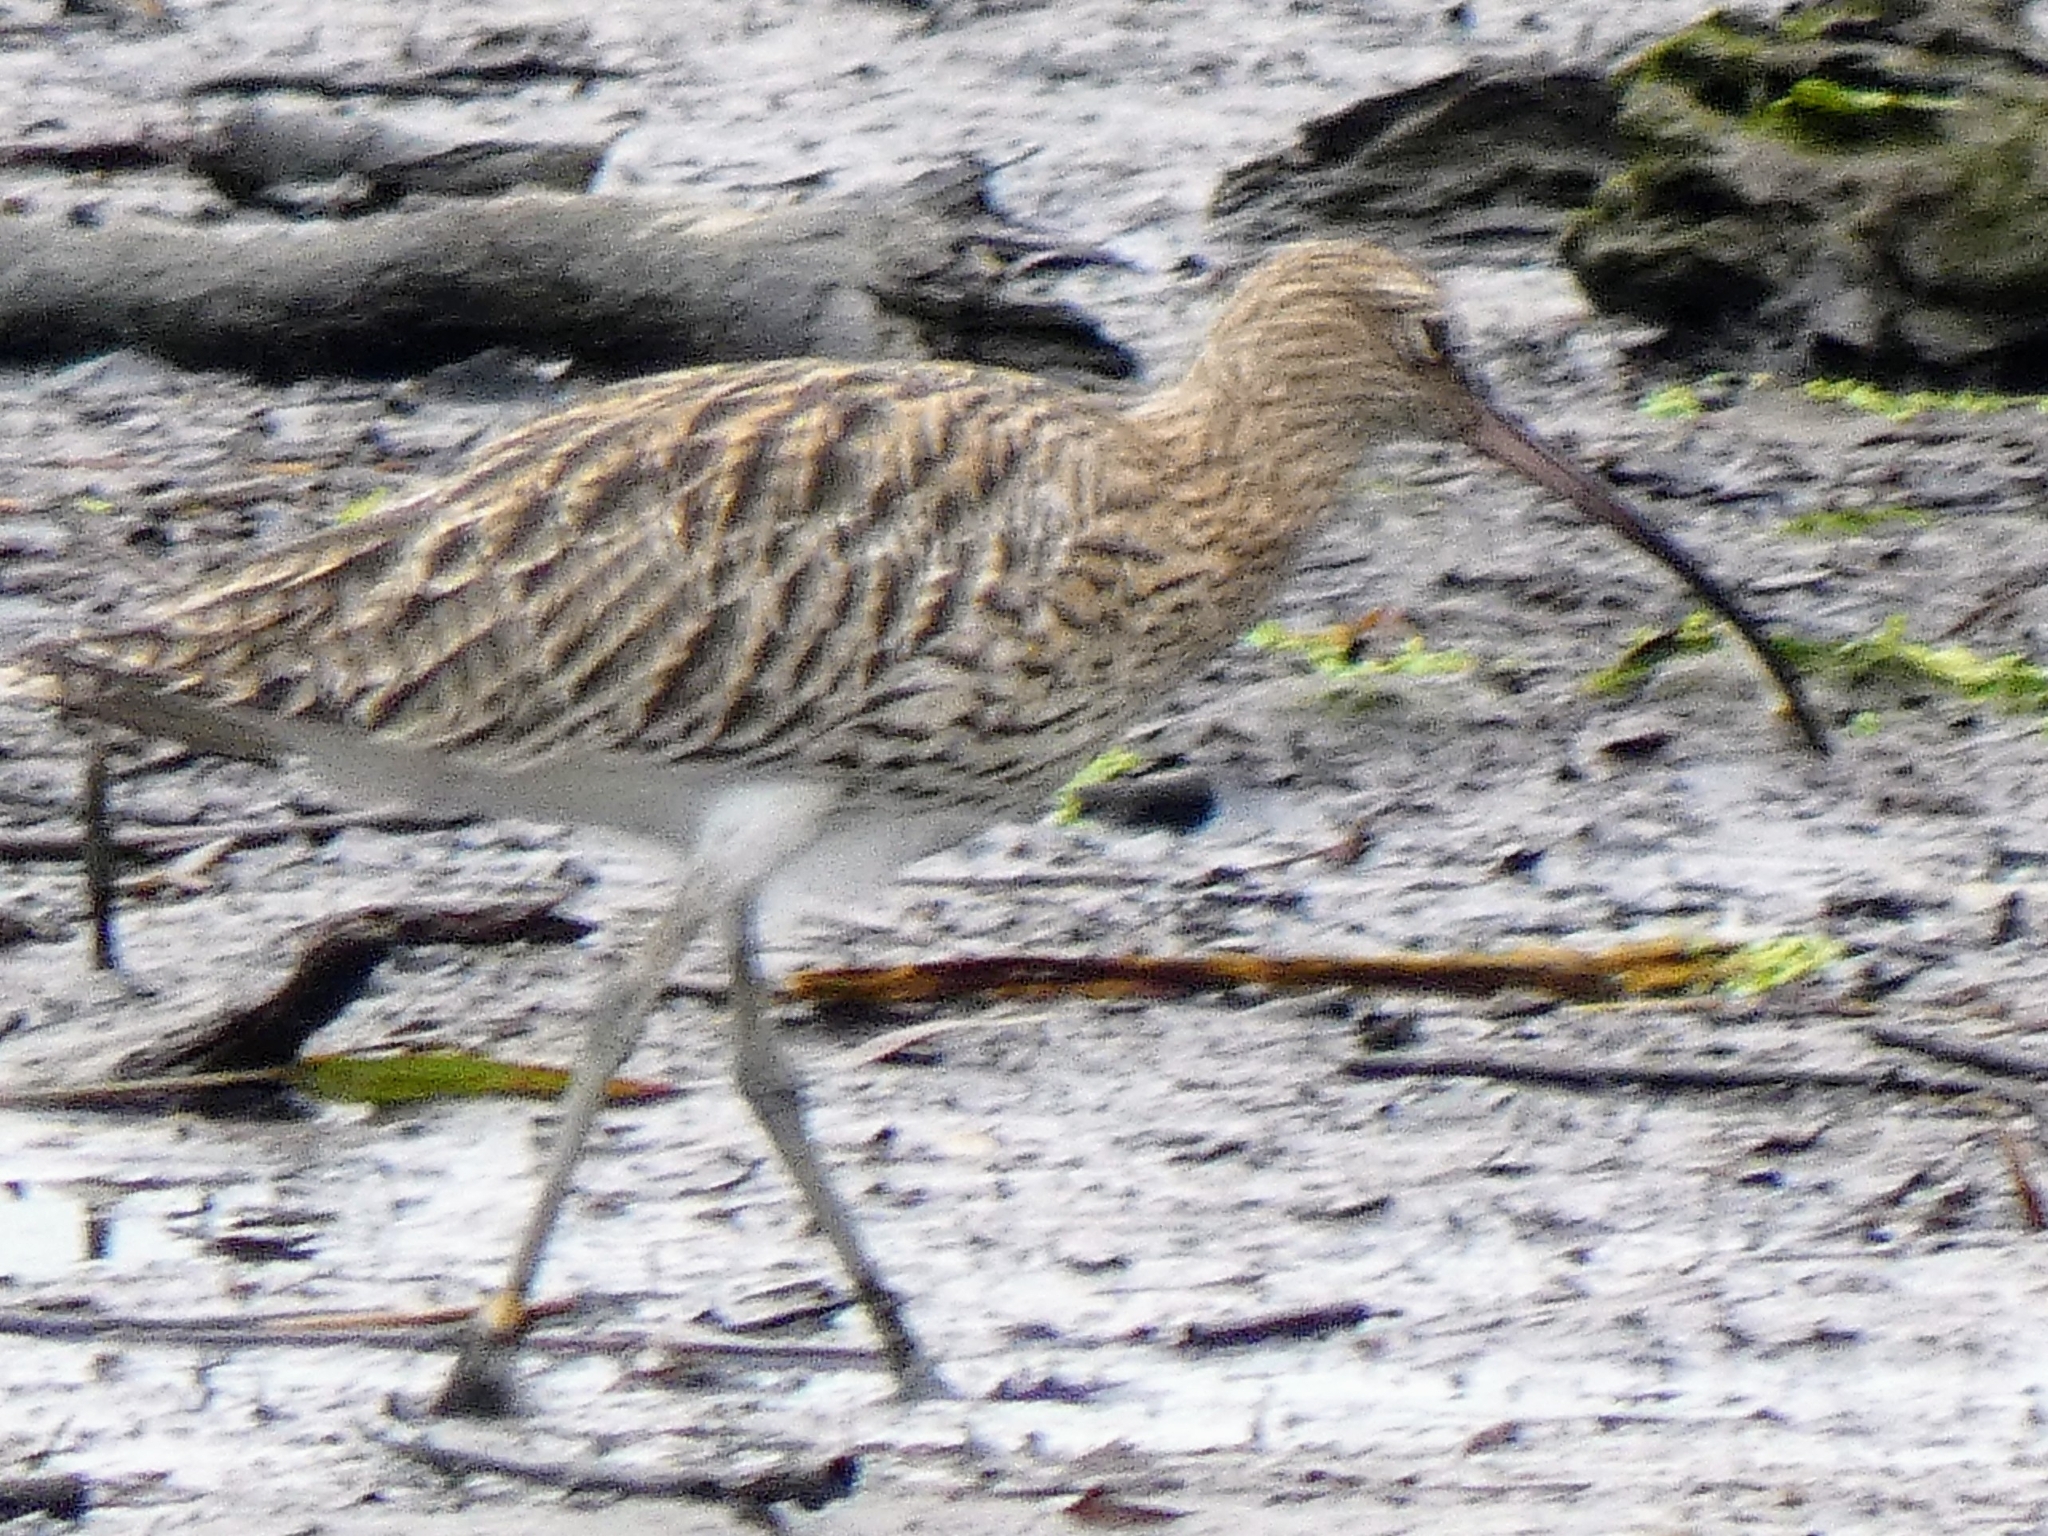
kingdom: Animalia
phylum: Chordata
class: Aves
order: Charadriiformes
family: Scolopacidae
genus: Numenius
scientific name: Numenius arquata
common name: Eurasian curlew
